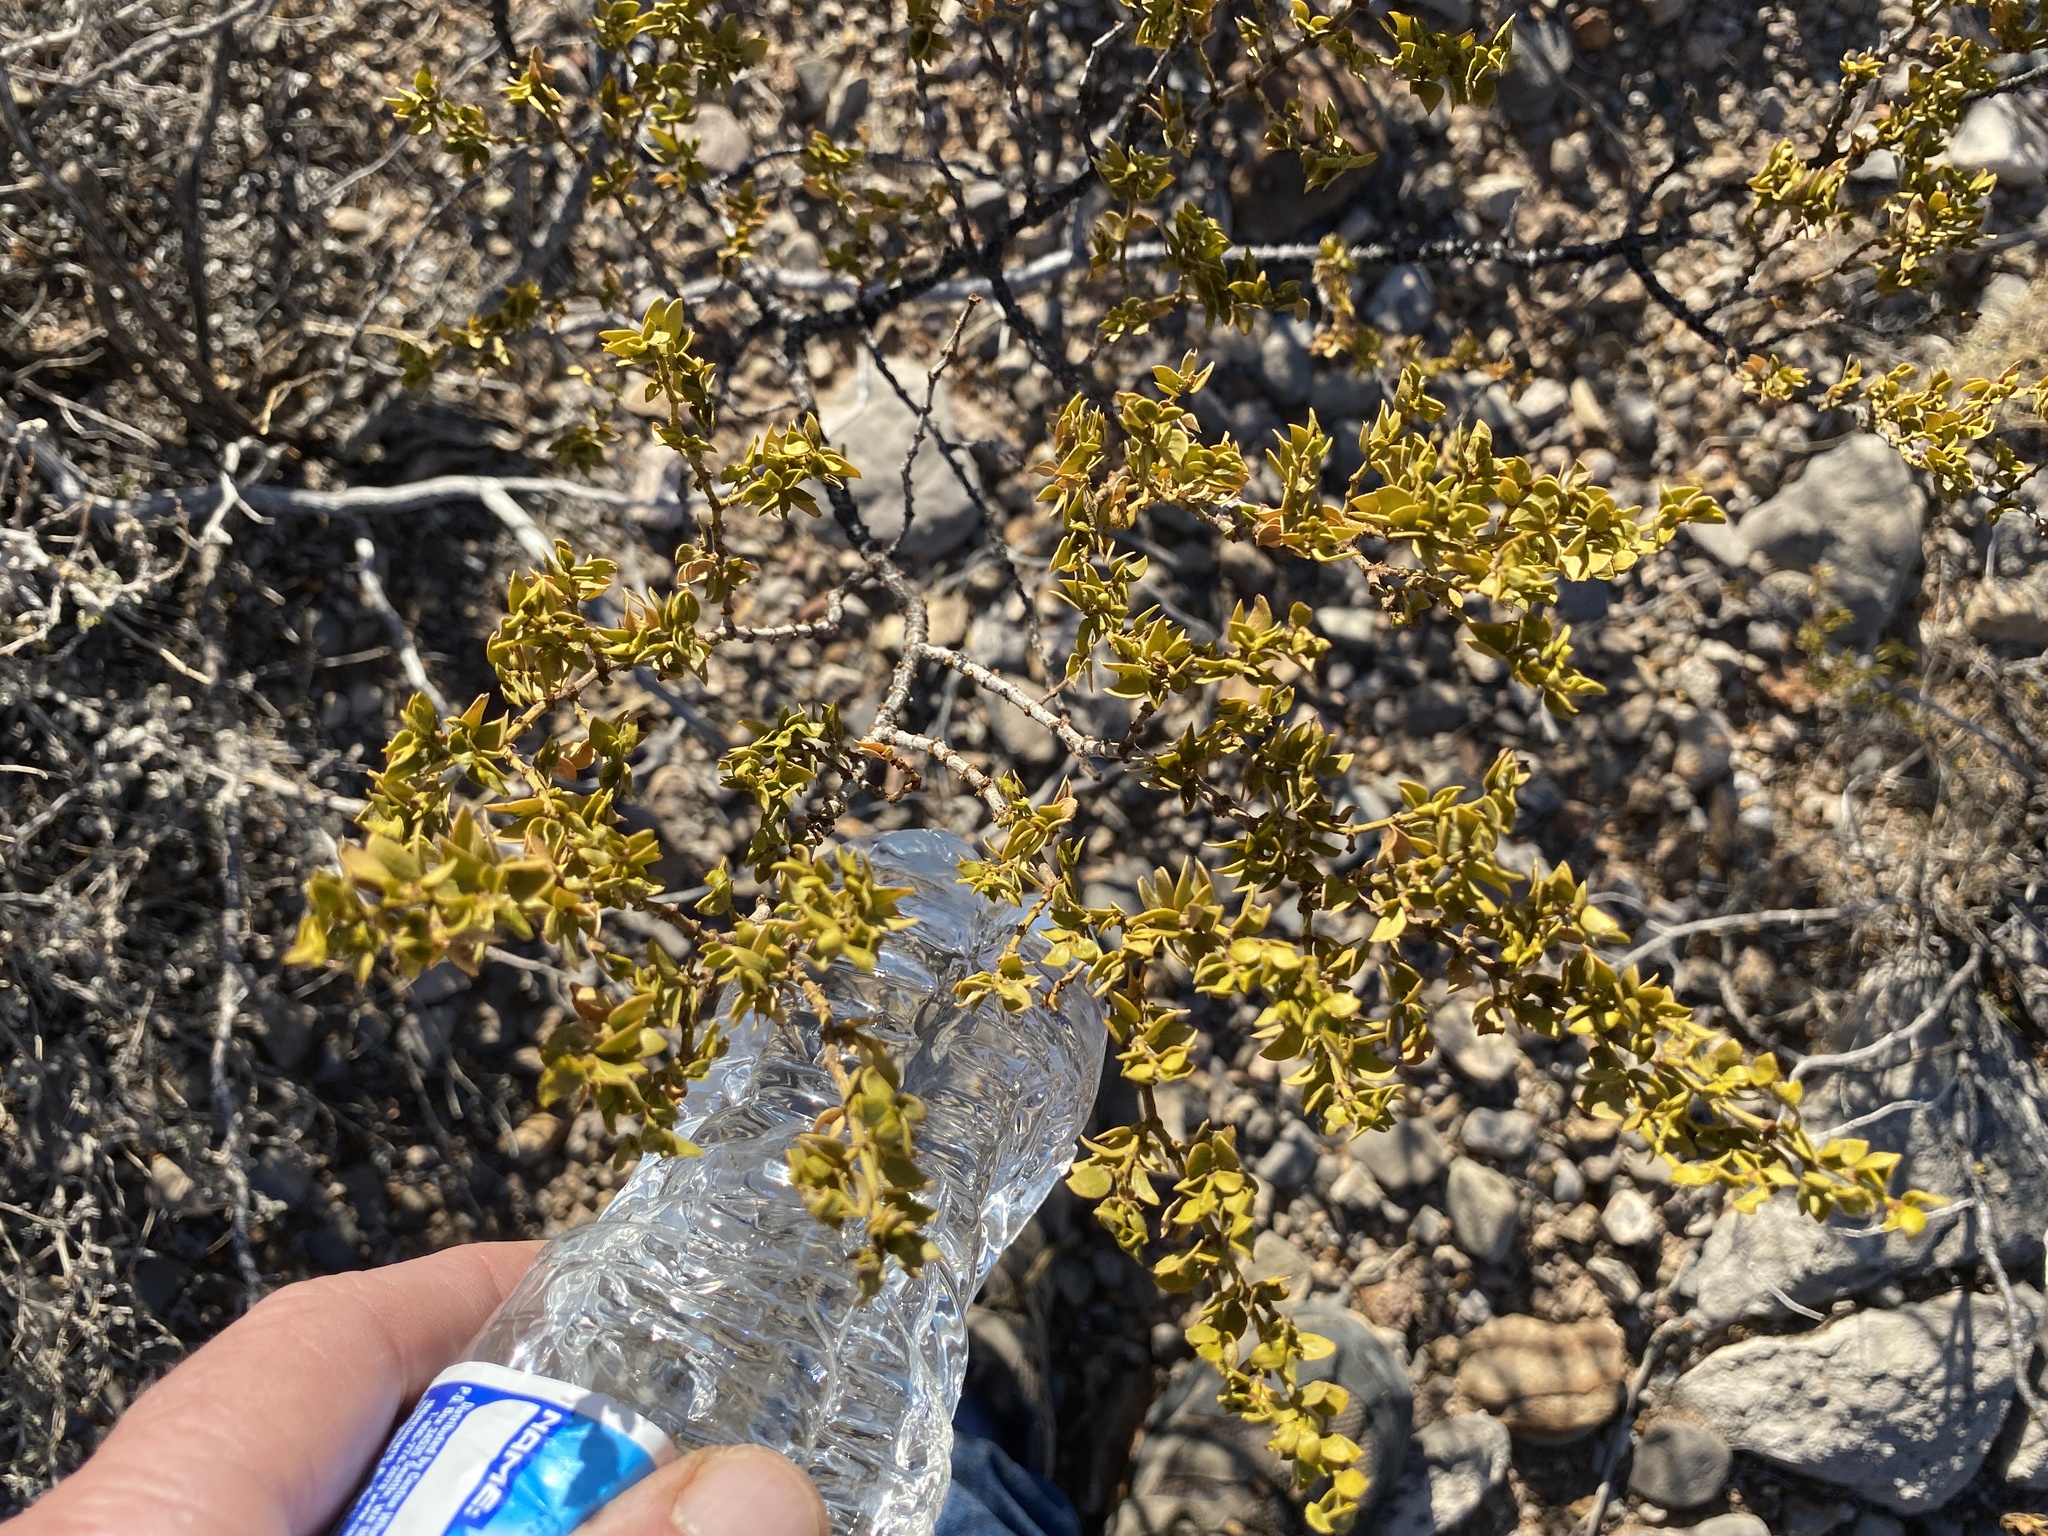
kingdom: Plantae
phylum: Tracheophyta
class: Magnoliopsida
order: Zygophyllales
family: Zygophyllaceae
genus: Larrea
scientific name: Larrea tridentata
